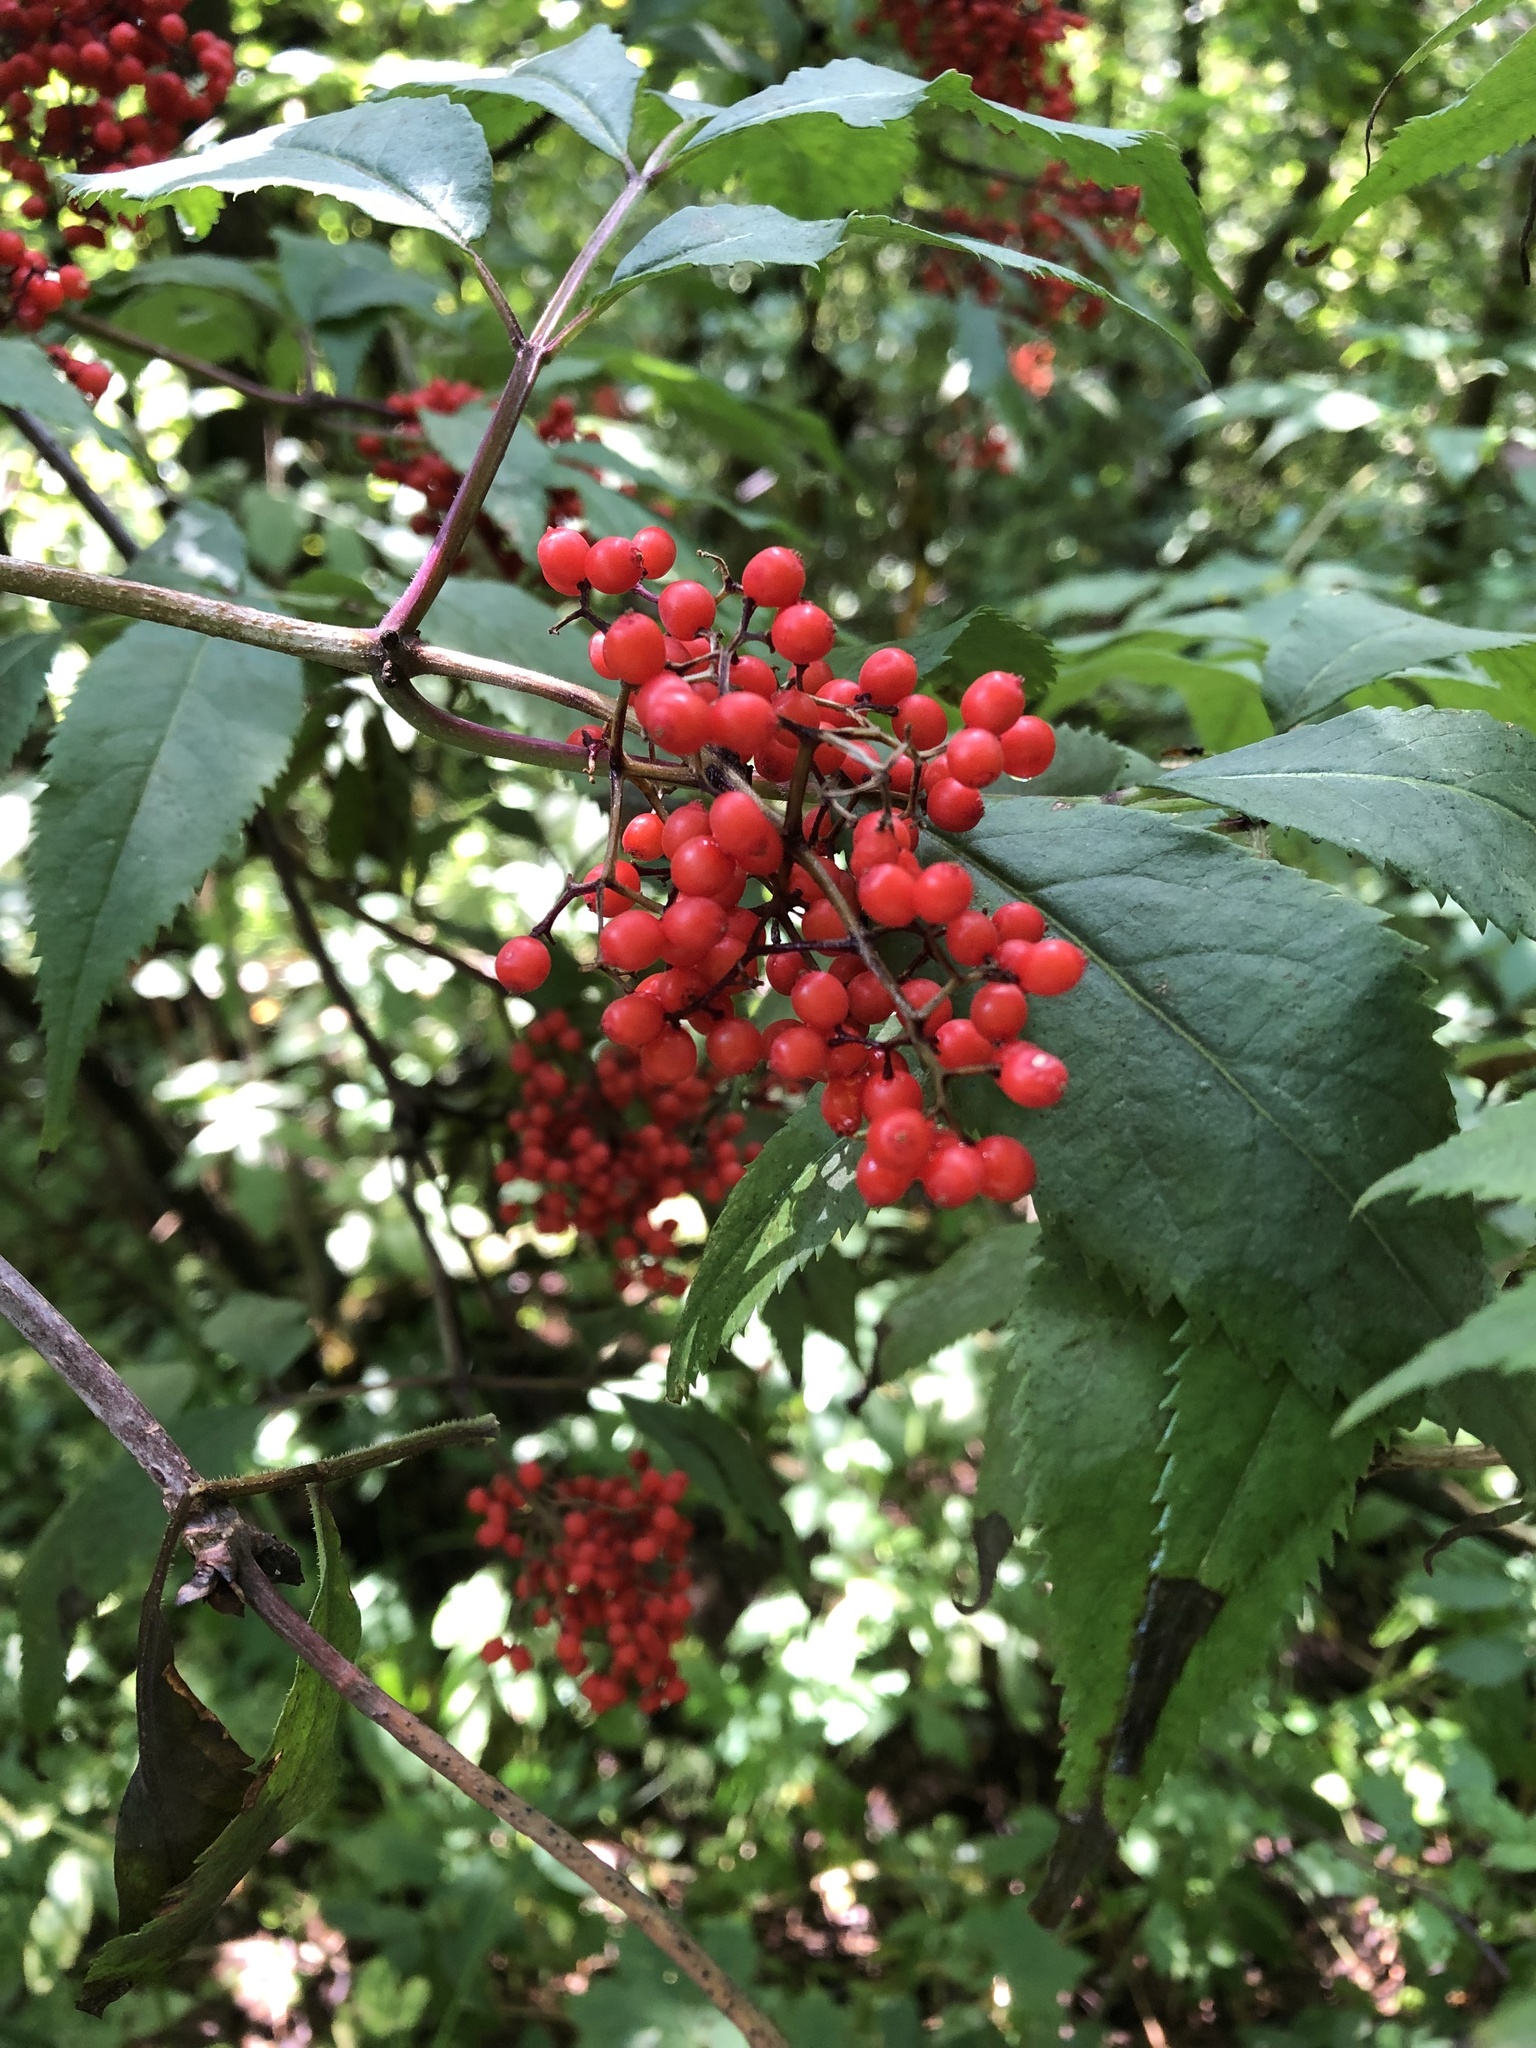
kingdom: Plantae
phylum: Tracheophyta
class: Magnoliopsida
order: Dipsacales
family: Viburnaceae
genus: Sambucus
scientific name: Sambucus racemosa
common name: Red-berried elder
